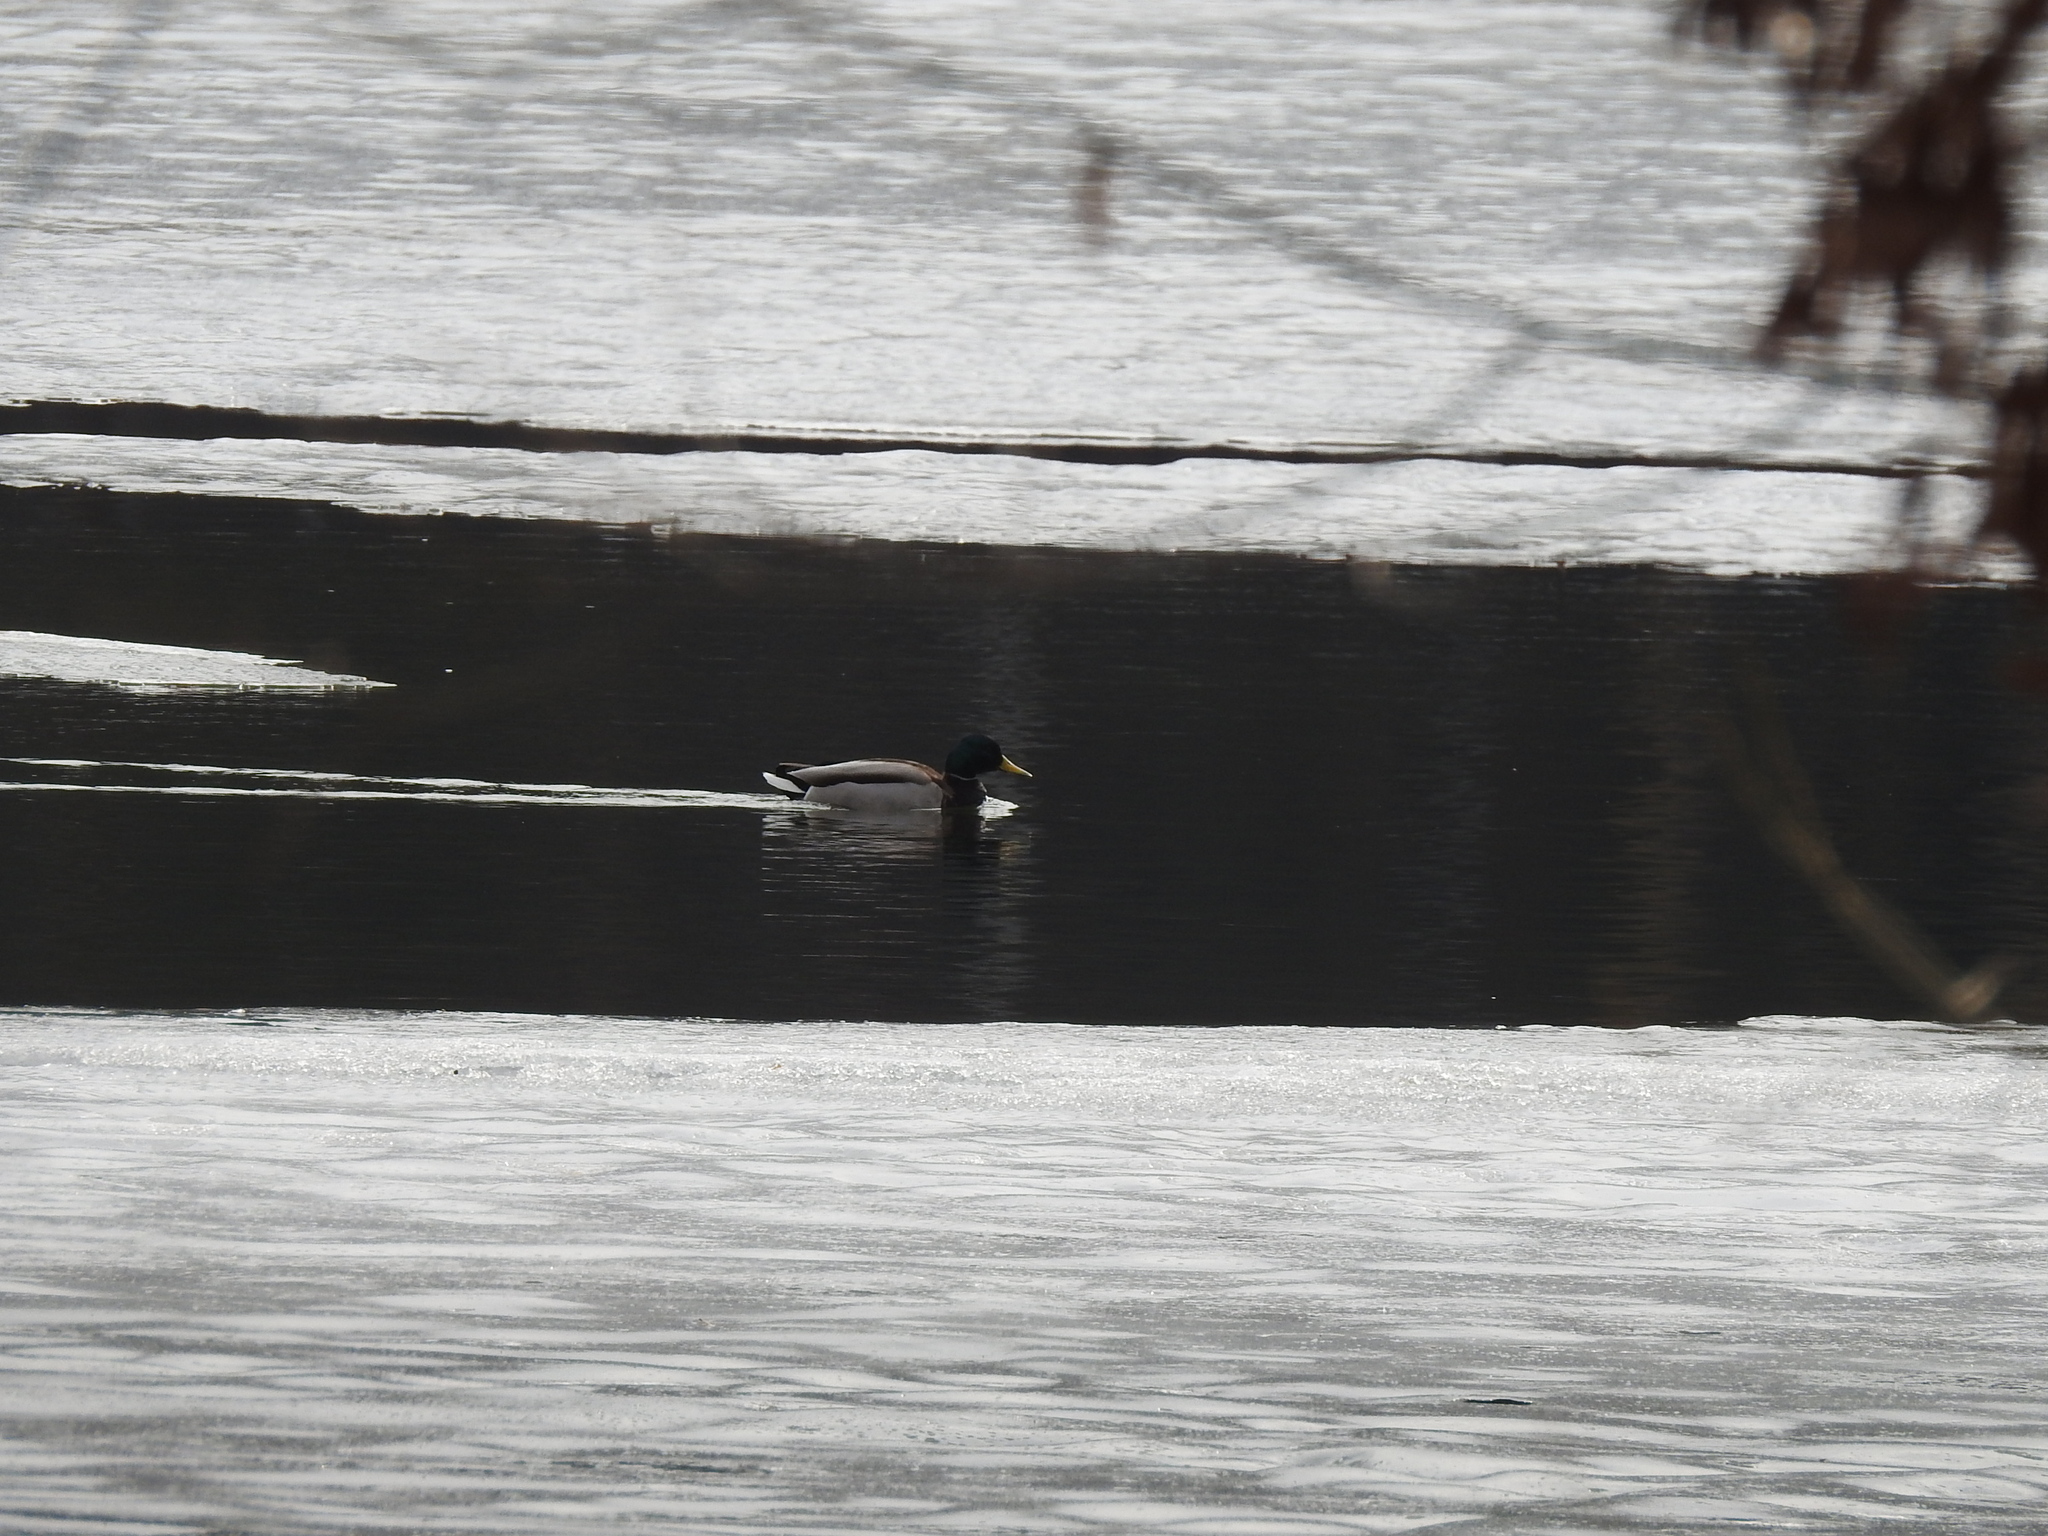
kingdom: Animalia
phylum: Chordata
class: Aves
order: Anseriformes
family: Anatidae
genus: Anas
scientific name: Anas platyrhynchos
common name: Mallard
